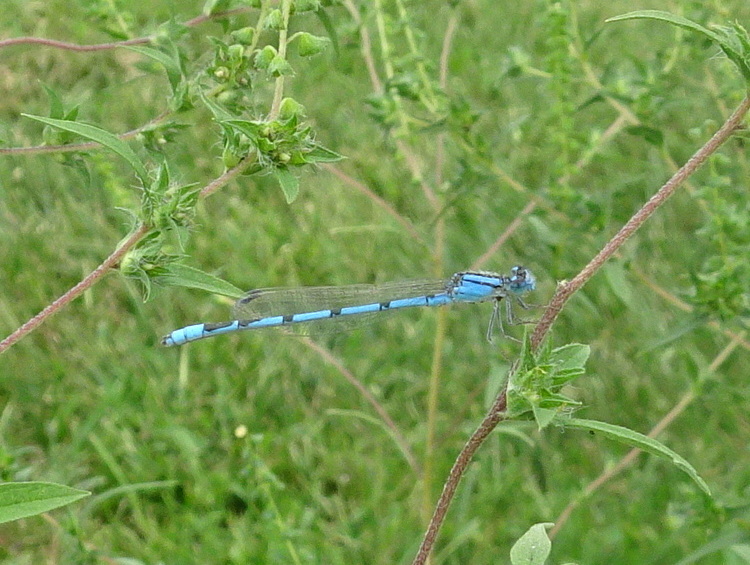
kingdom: Animalia
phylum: Arthropoda
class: Insecta
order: Odonata
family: Coenagrionidae
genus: Enallagma
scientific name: Enallagma civile
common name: Damselfly
